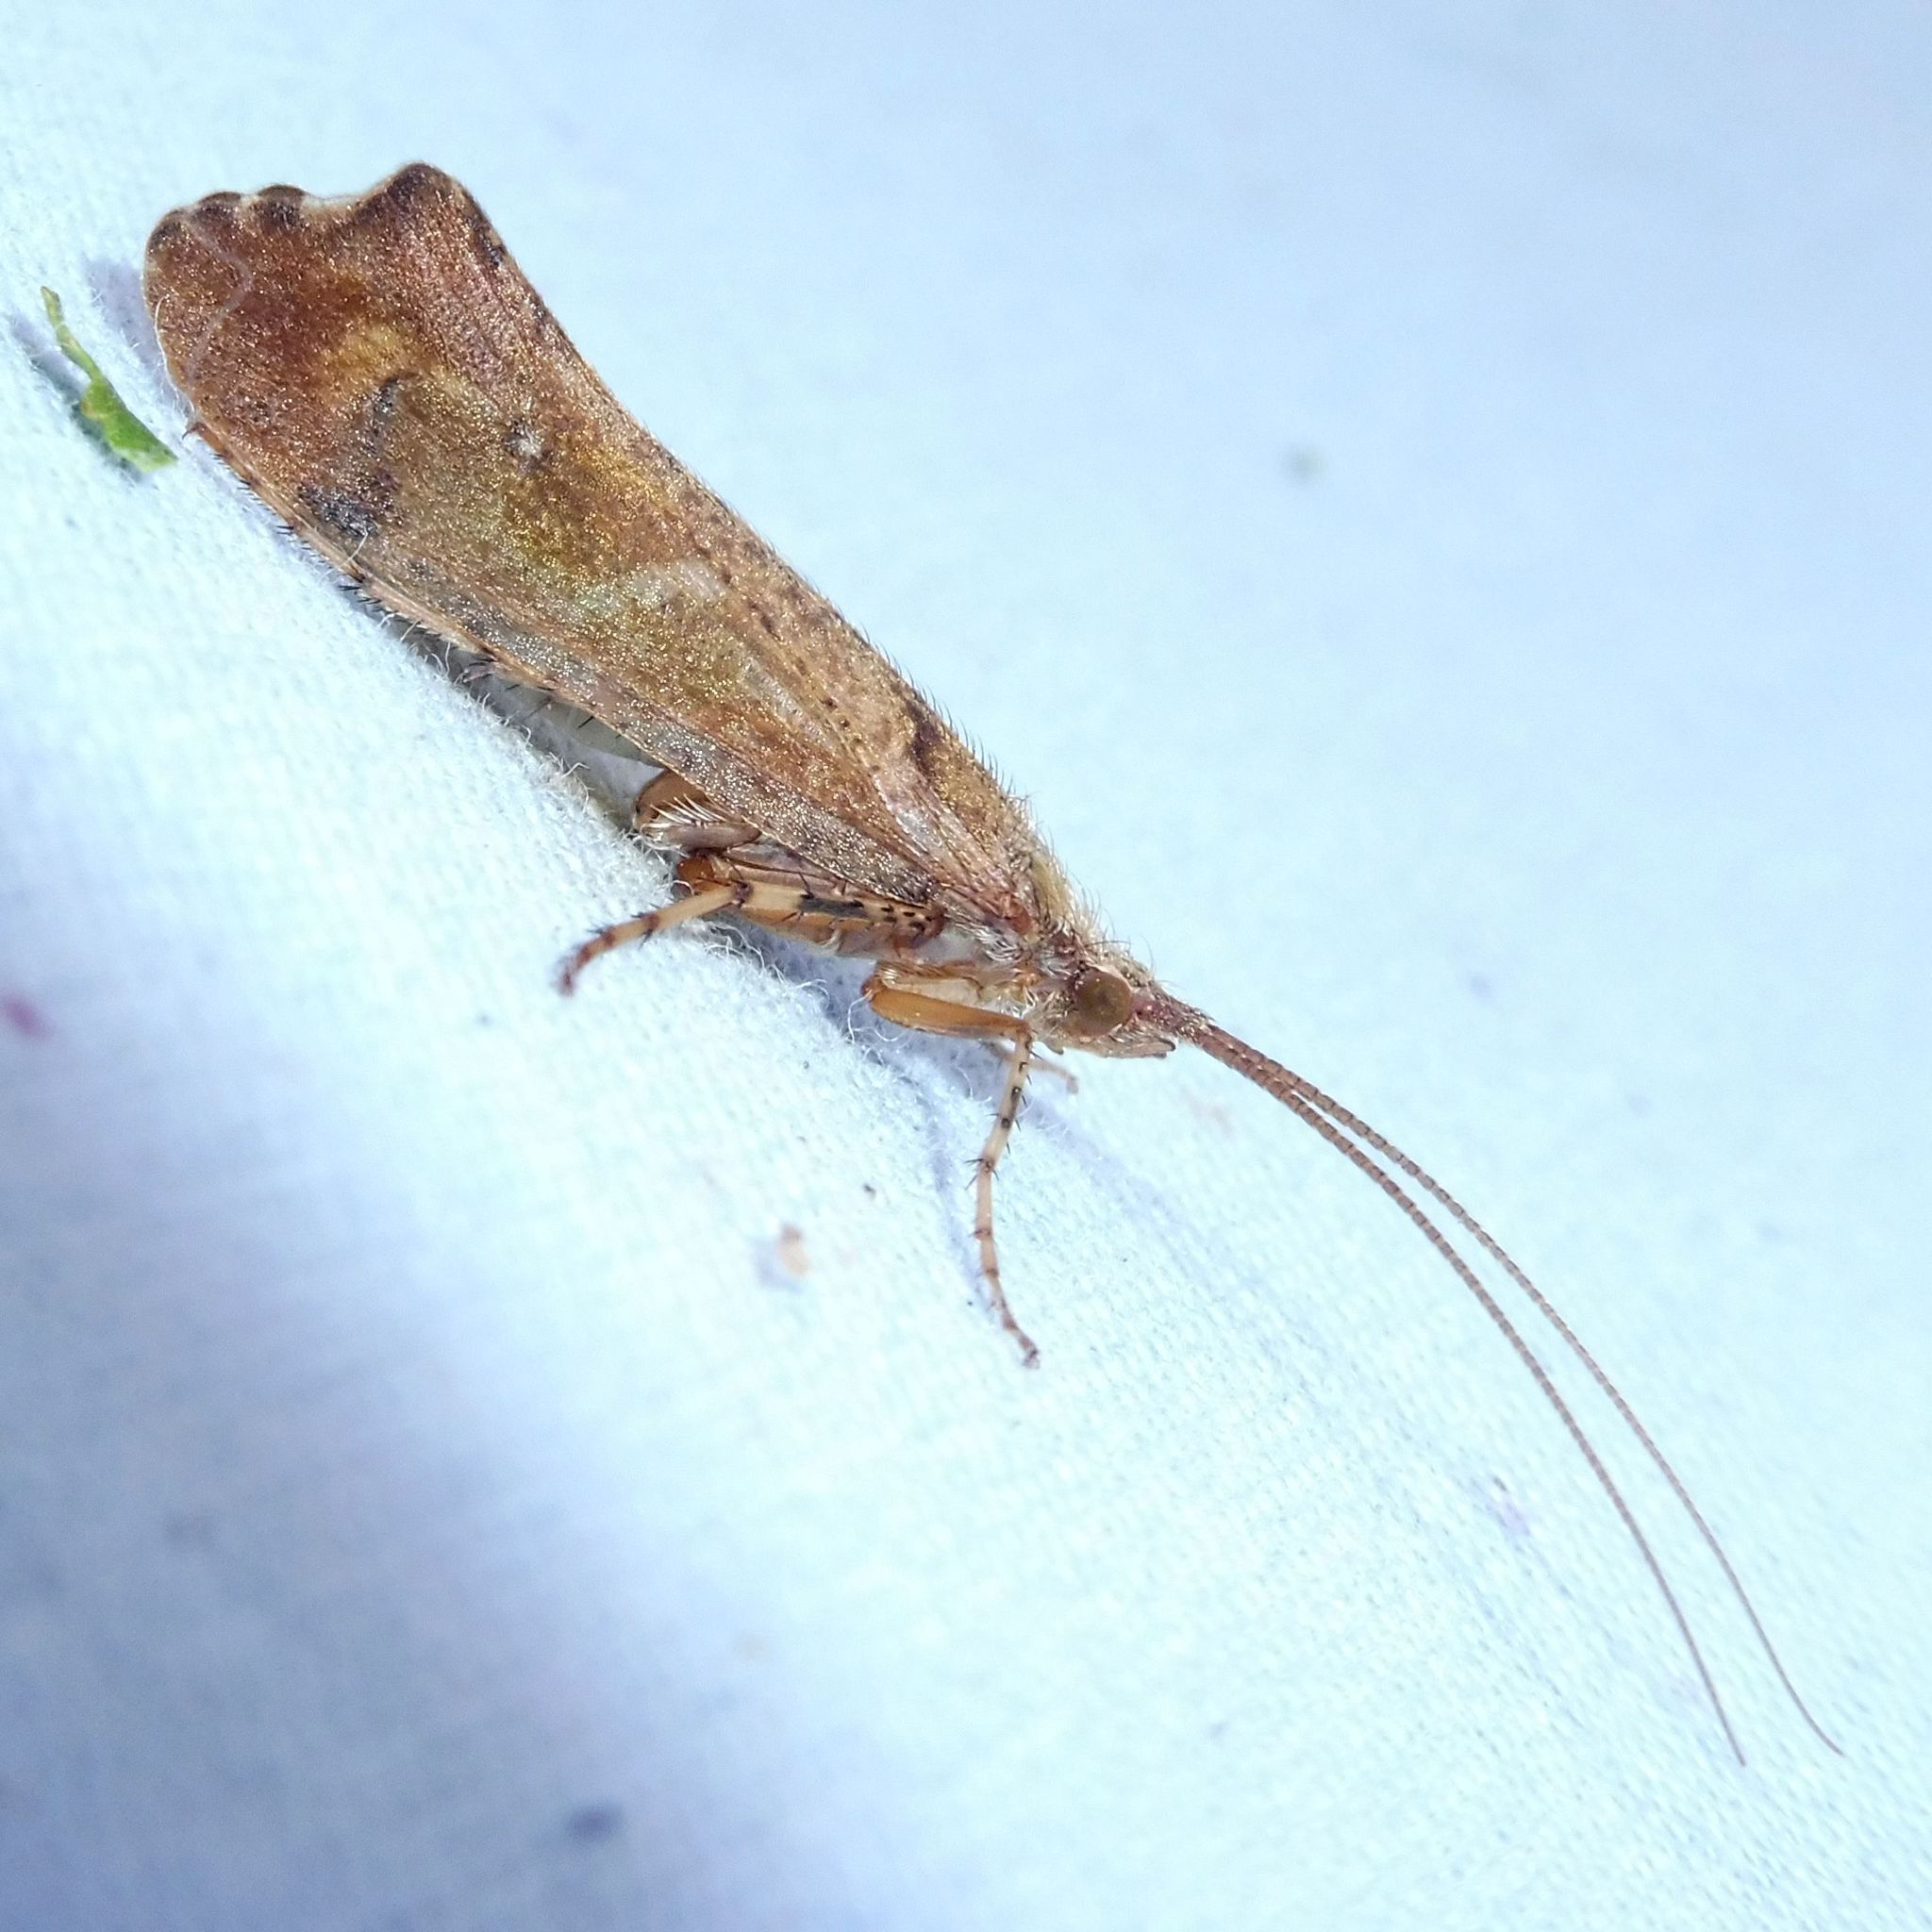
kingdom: Animalia
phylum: Arthropoda
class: Insecta
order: Trichoptera
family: Limnephilidae
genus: Glyphotaelius
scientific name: Glyphotaelius pellucidus
